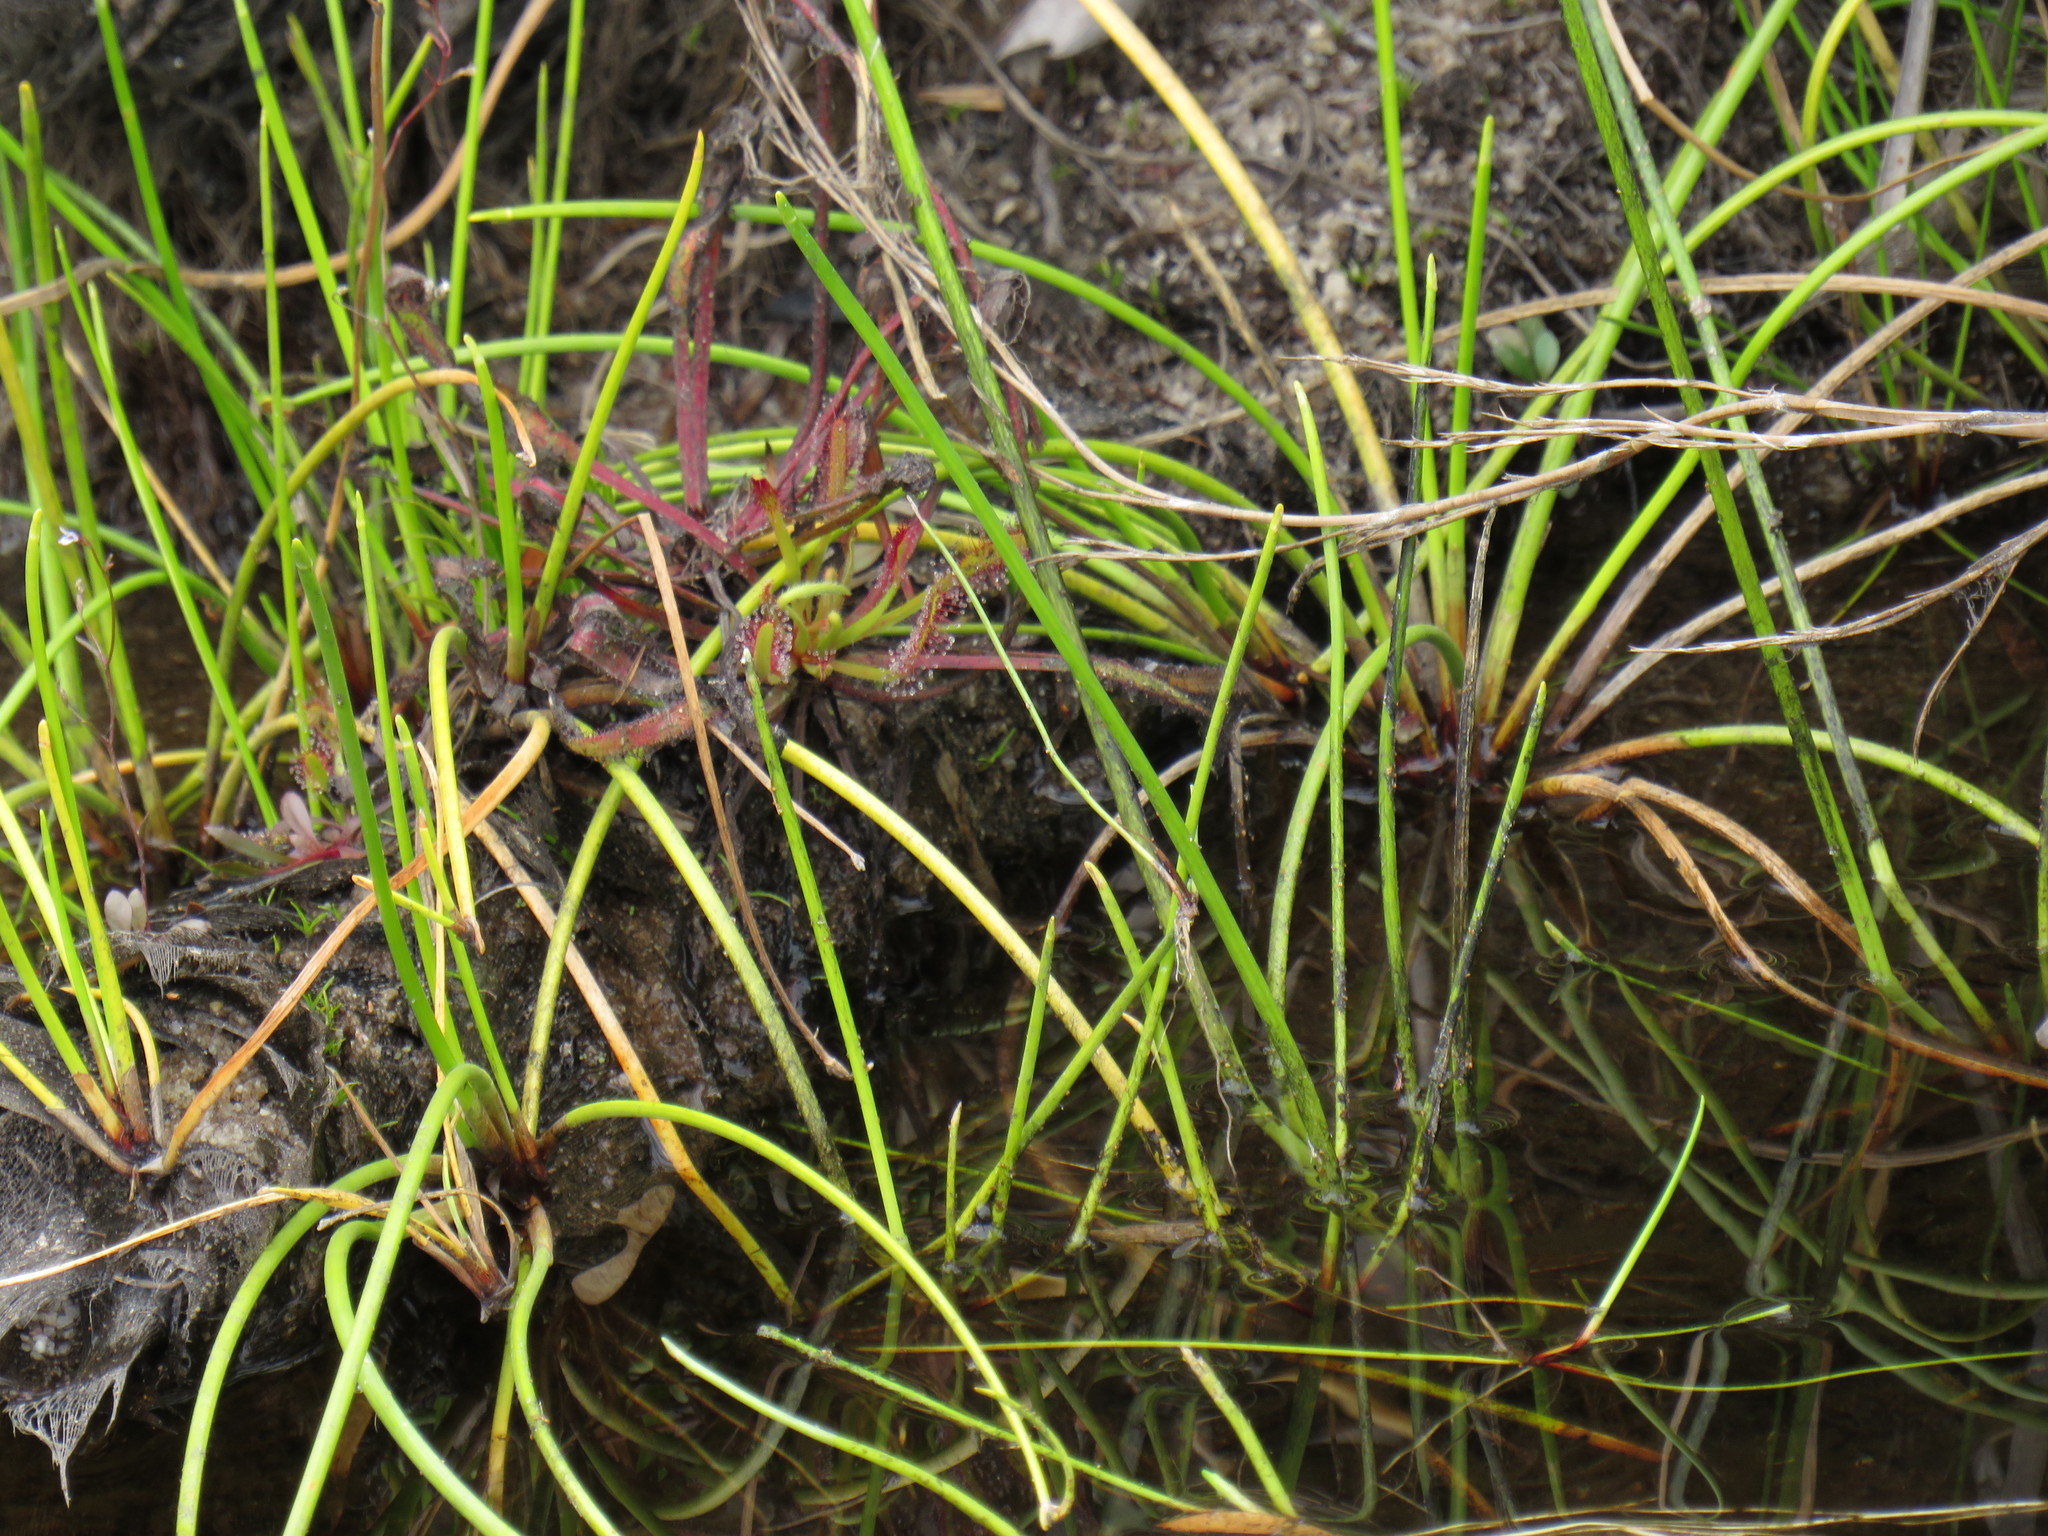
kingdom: Plantae
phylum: Tracheophyta
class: Liliopsida
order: Poales
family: Cyperaceae
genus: Isolepis
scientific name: Isolepis prolifera
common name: Proliferating bulrush
